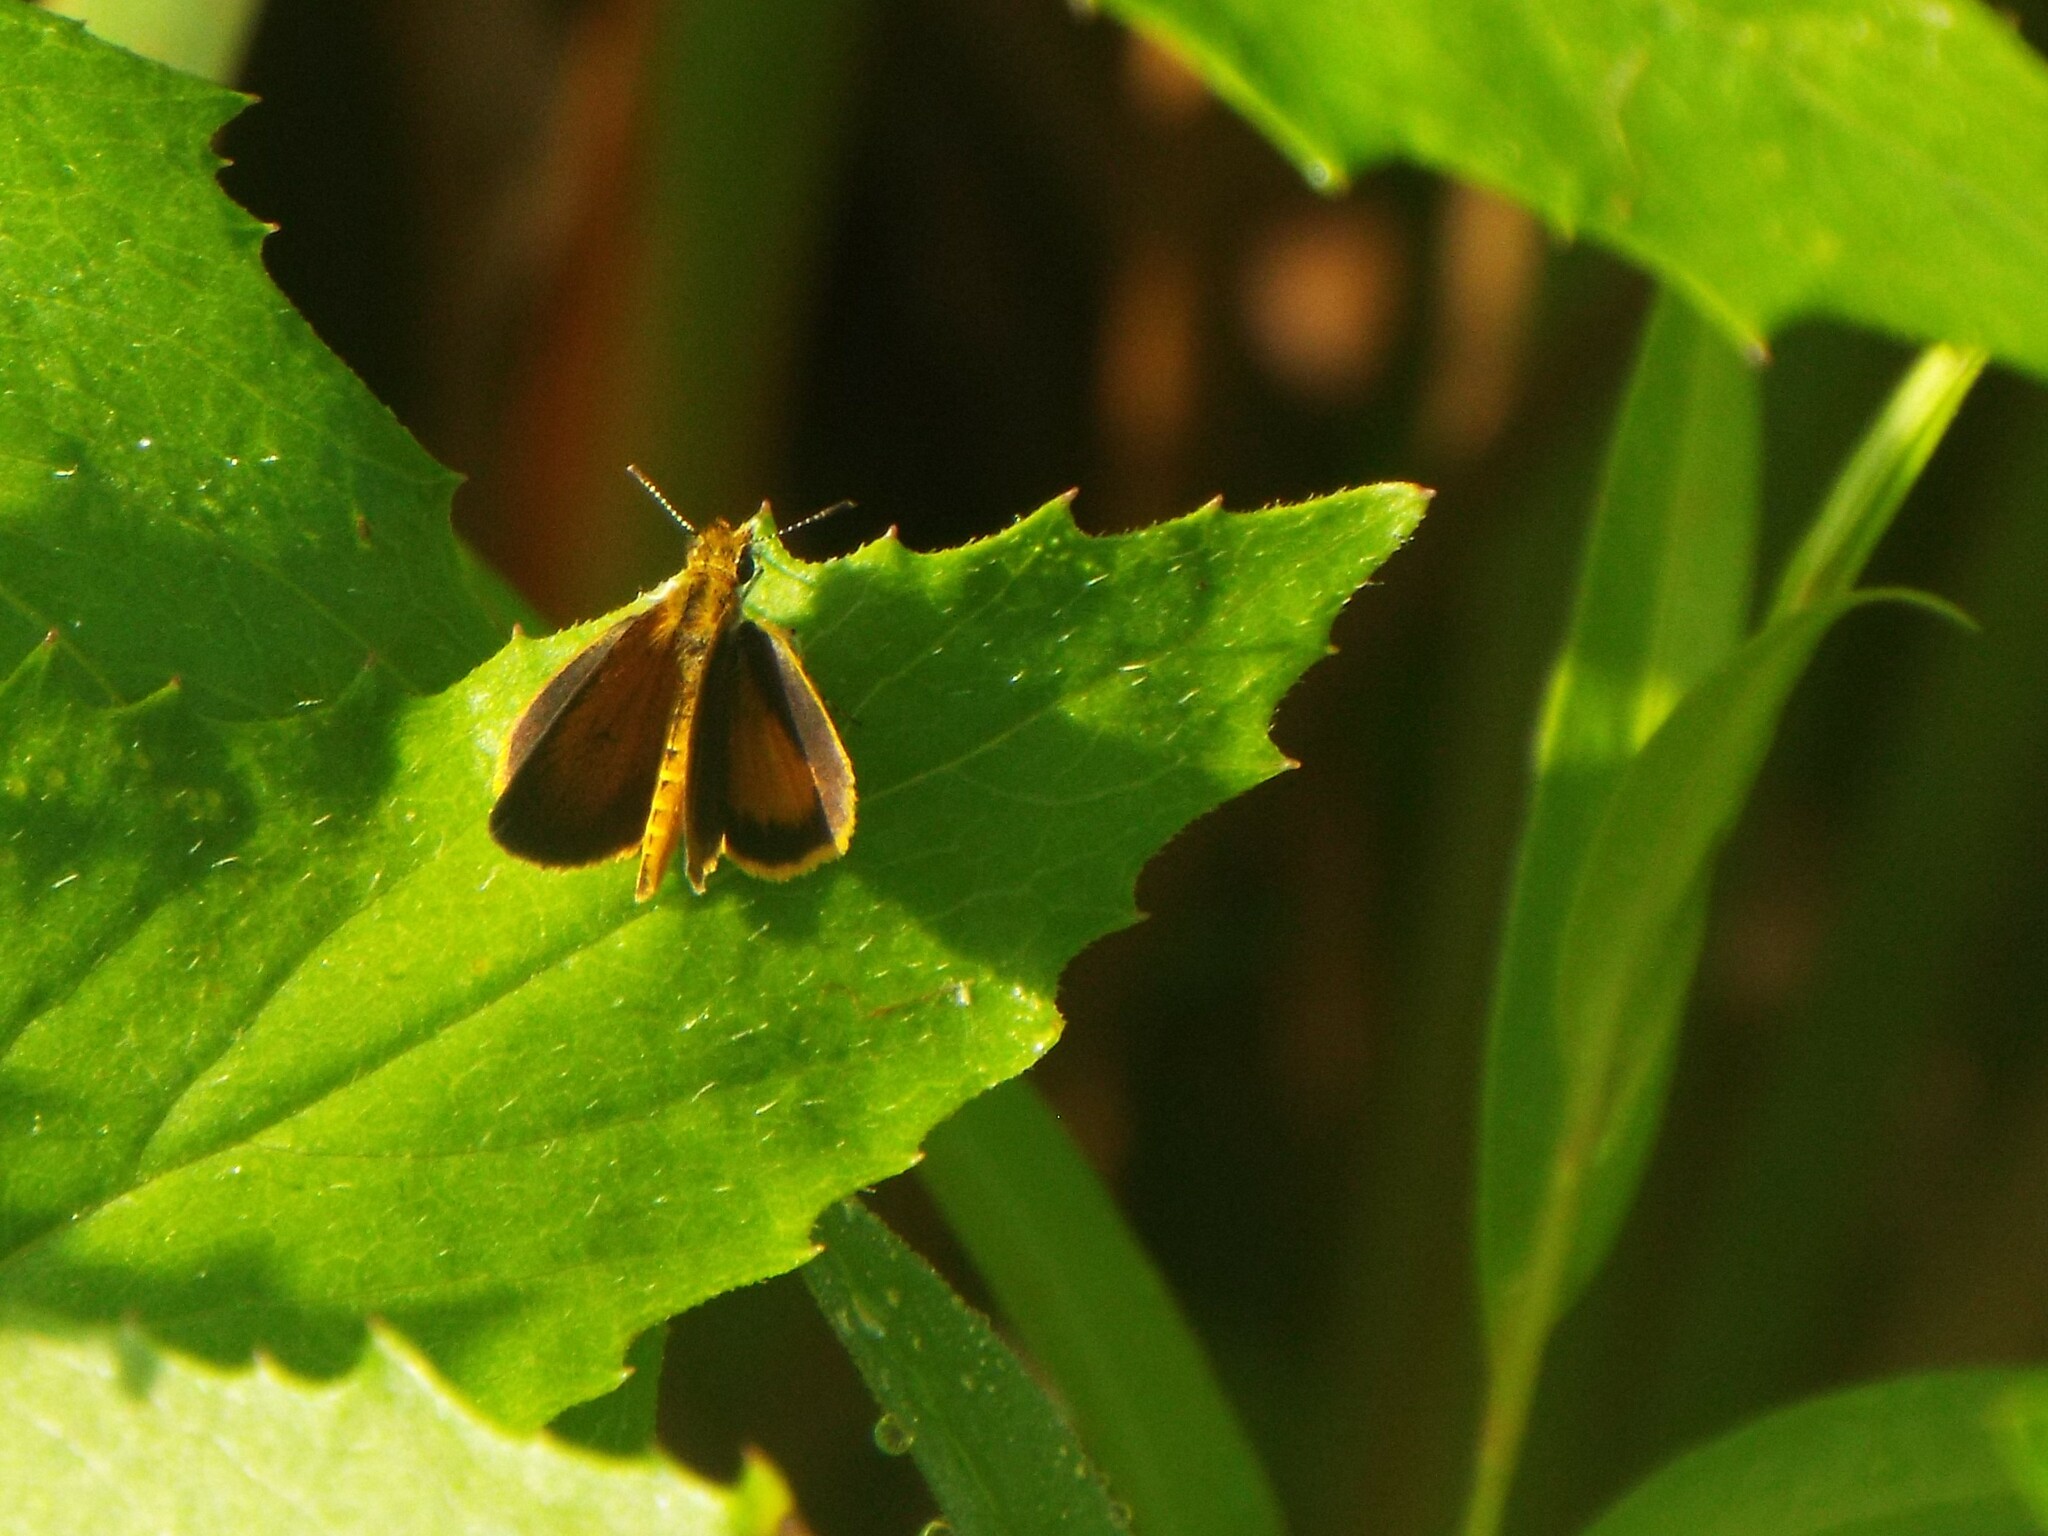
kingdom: Animalia
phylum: Arthropoda
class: Insecta
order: Lepidoptera
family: Hesperiidae
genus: Ancyloxypha
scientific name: Ancyloxypha numitor
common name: Least skipper
